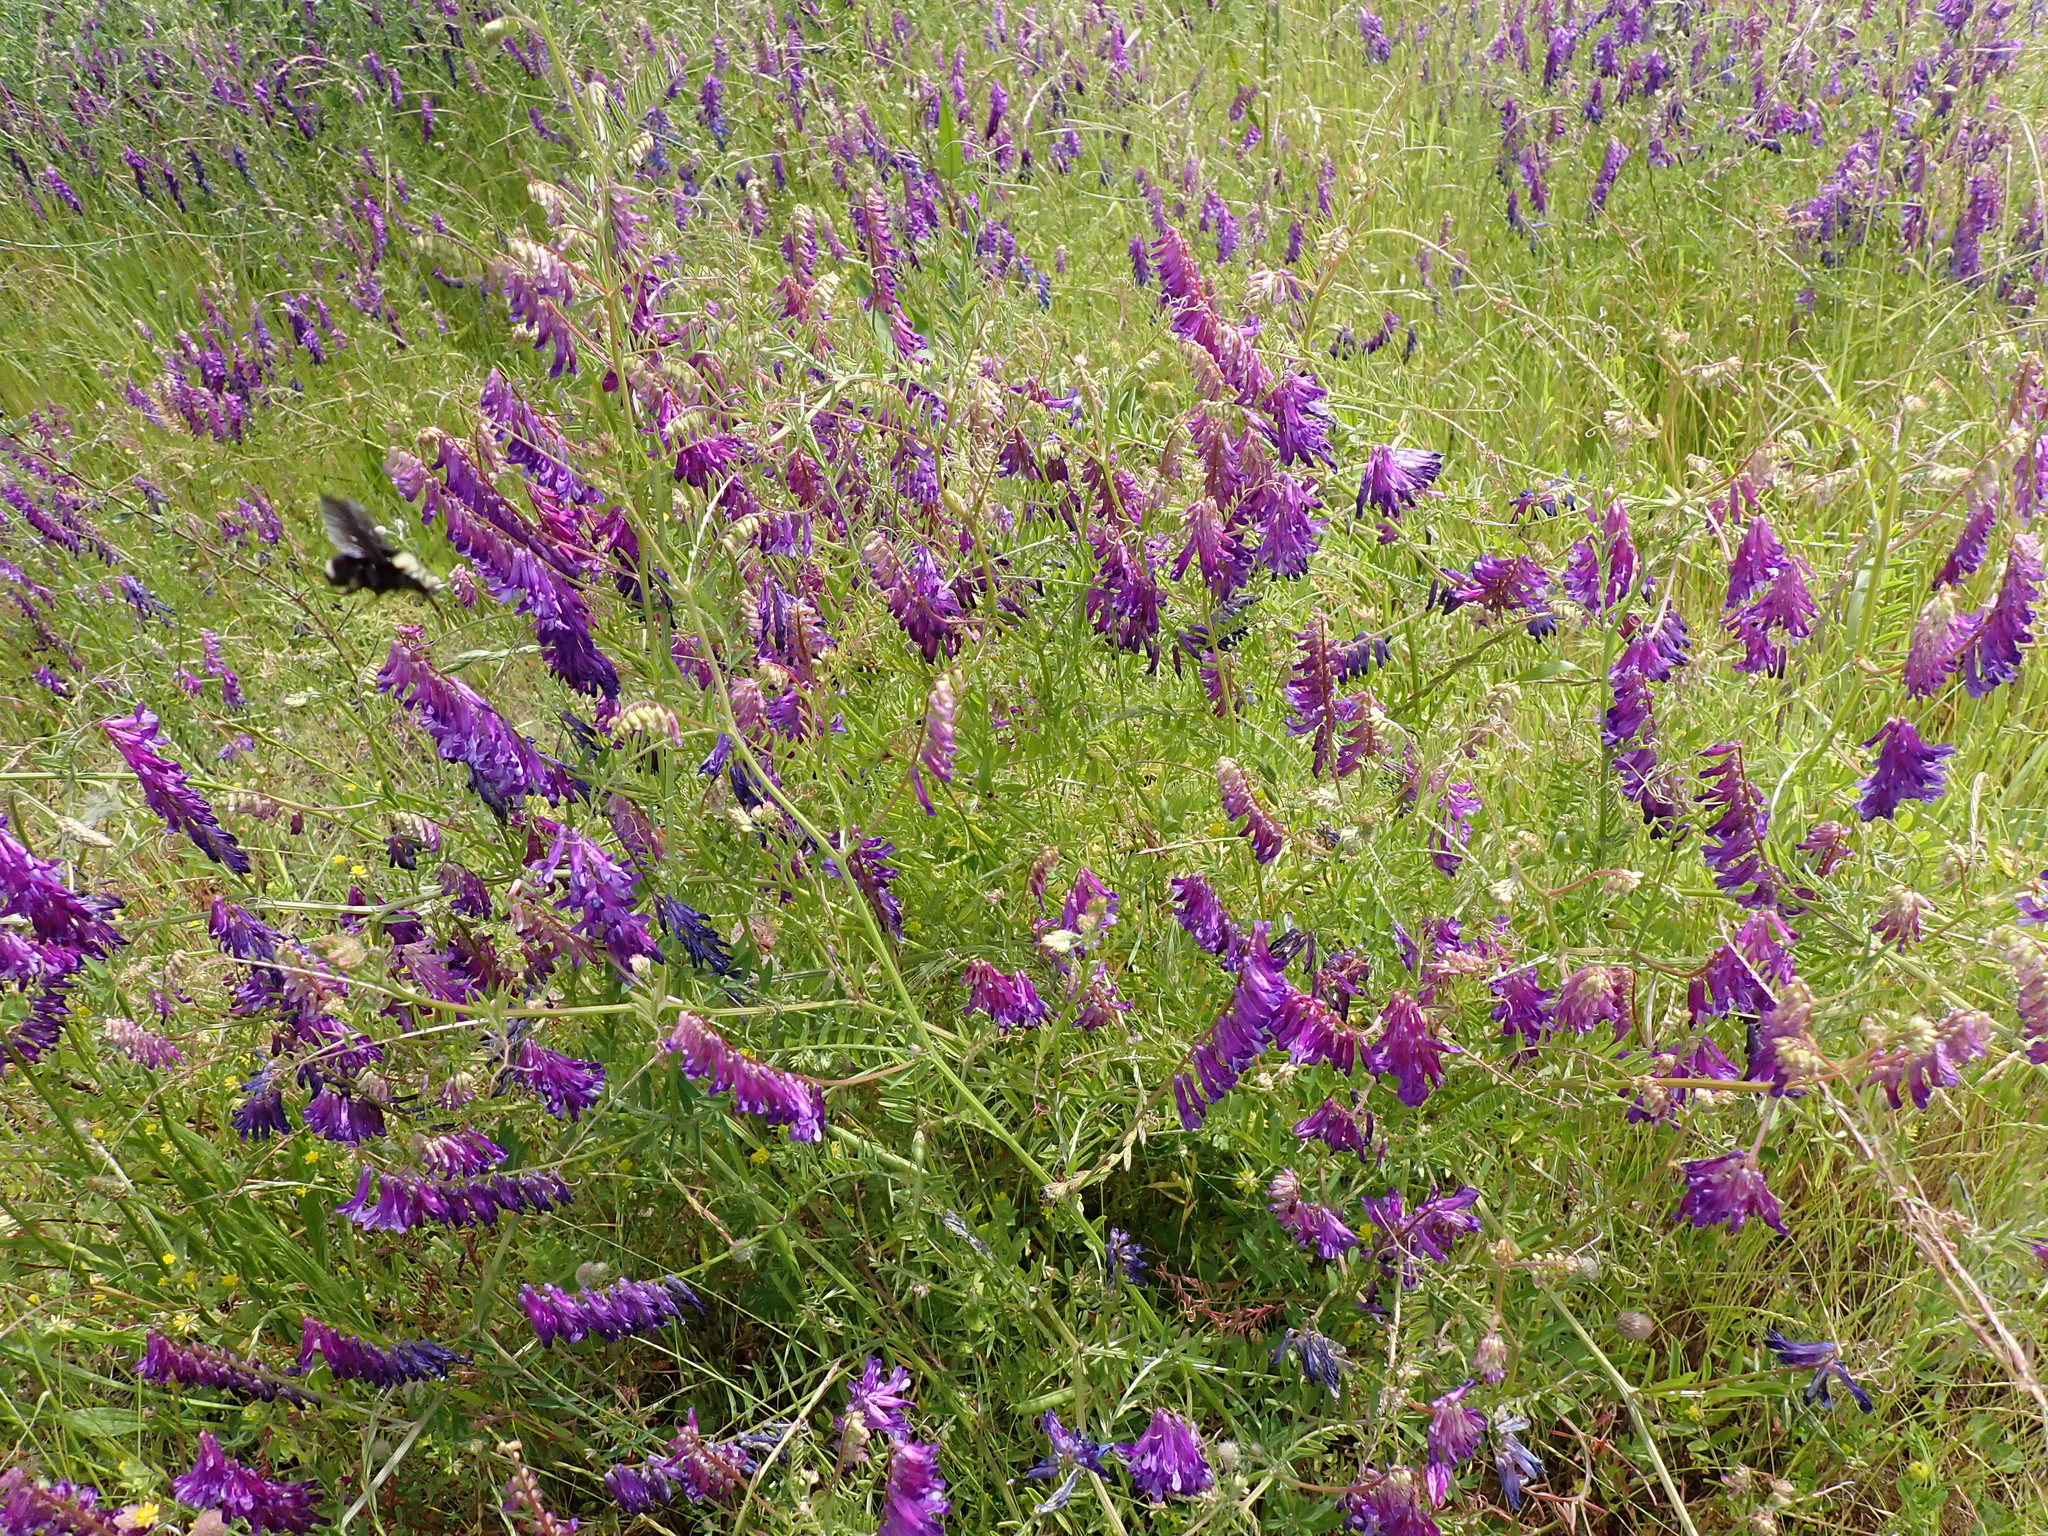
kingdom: Plantae
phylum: Tracheophyta
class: Magnoliopsida
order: Fabales
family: Fabaceae
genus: Vicia
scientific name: Vicia villosa
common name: Fodder vetch
